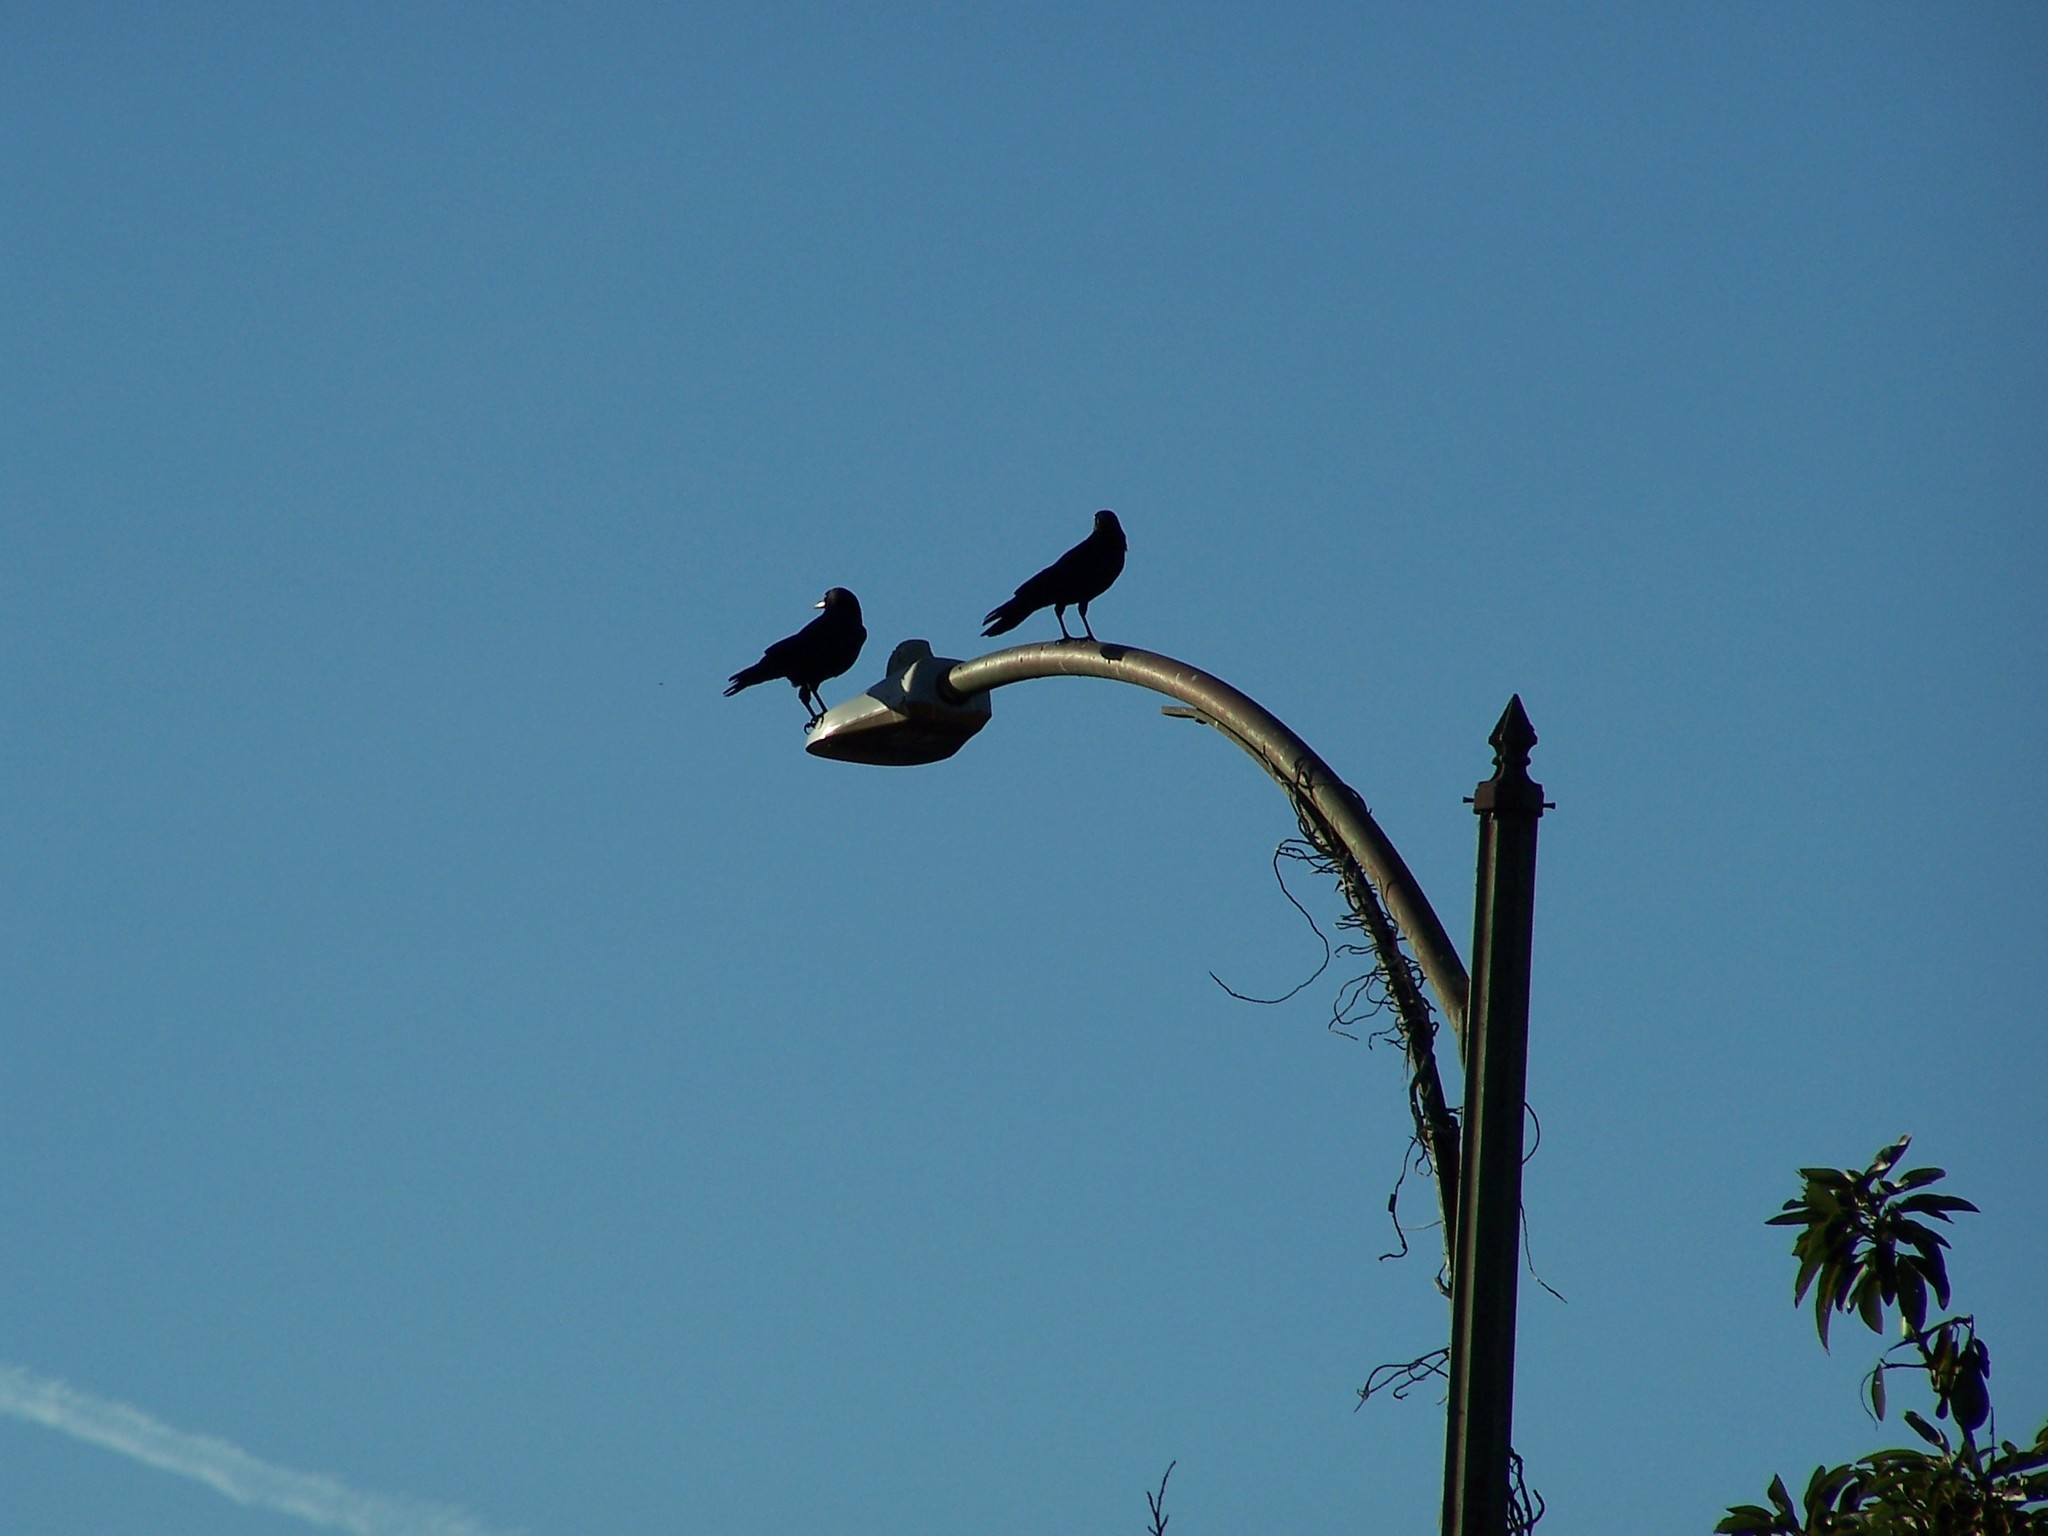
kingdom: Animalia
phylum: Chordata
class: Aves
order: Passeriformes
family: Corvidae
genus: Corvus
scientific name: Corvus brachyrhynchos
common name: American crow
